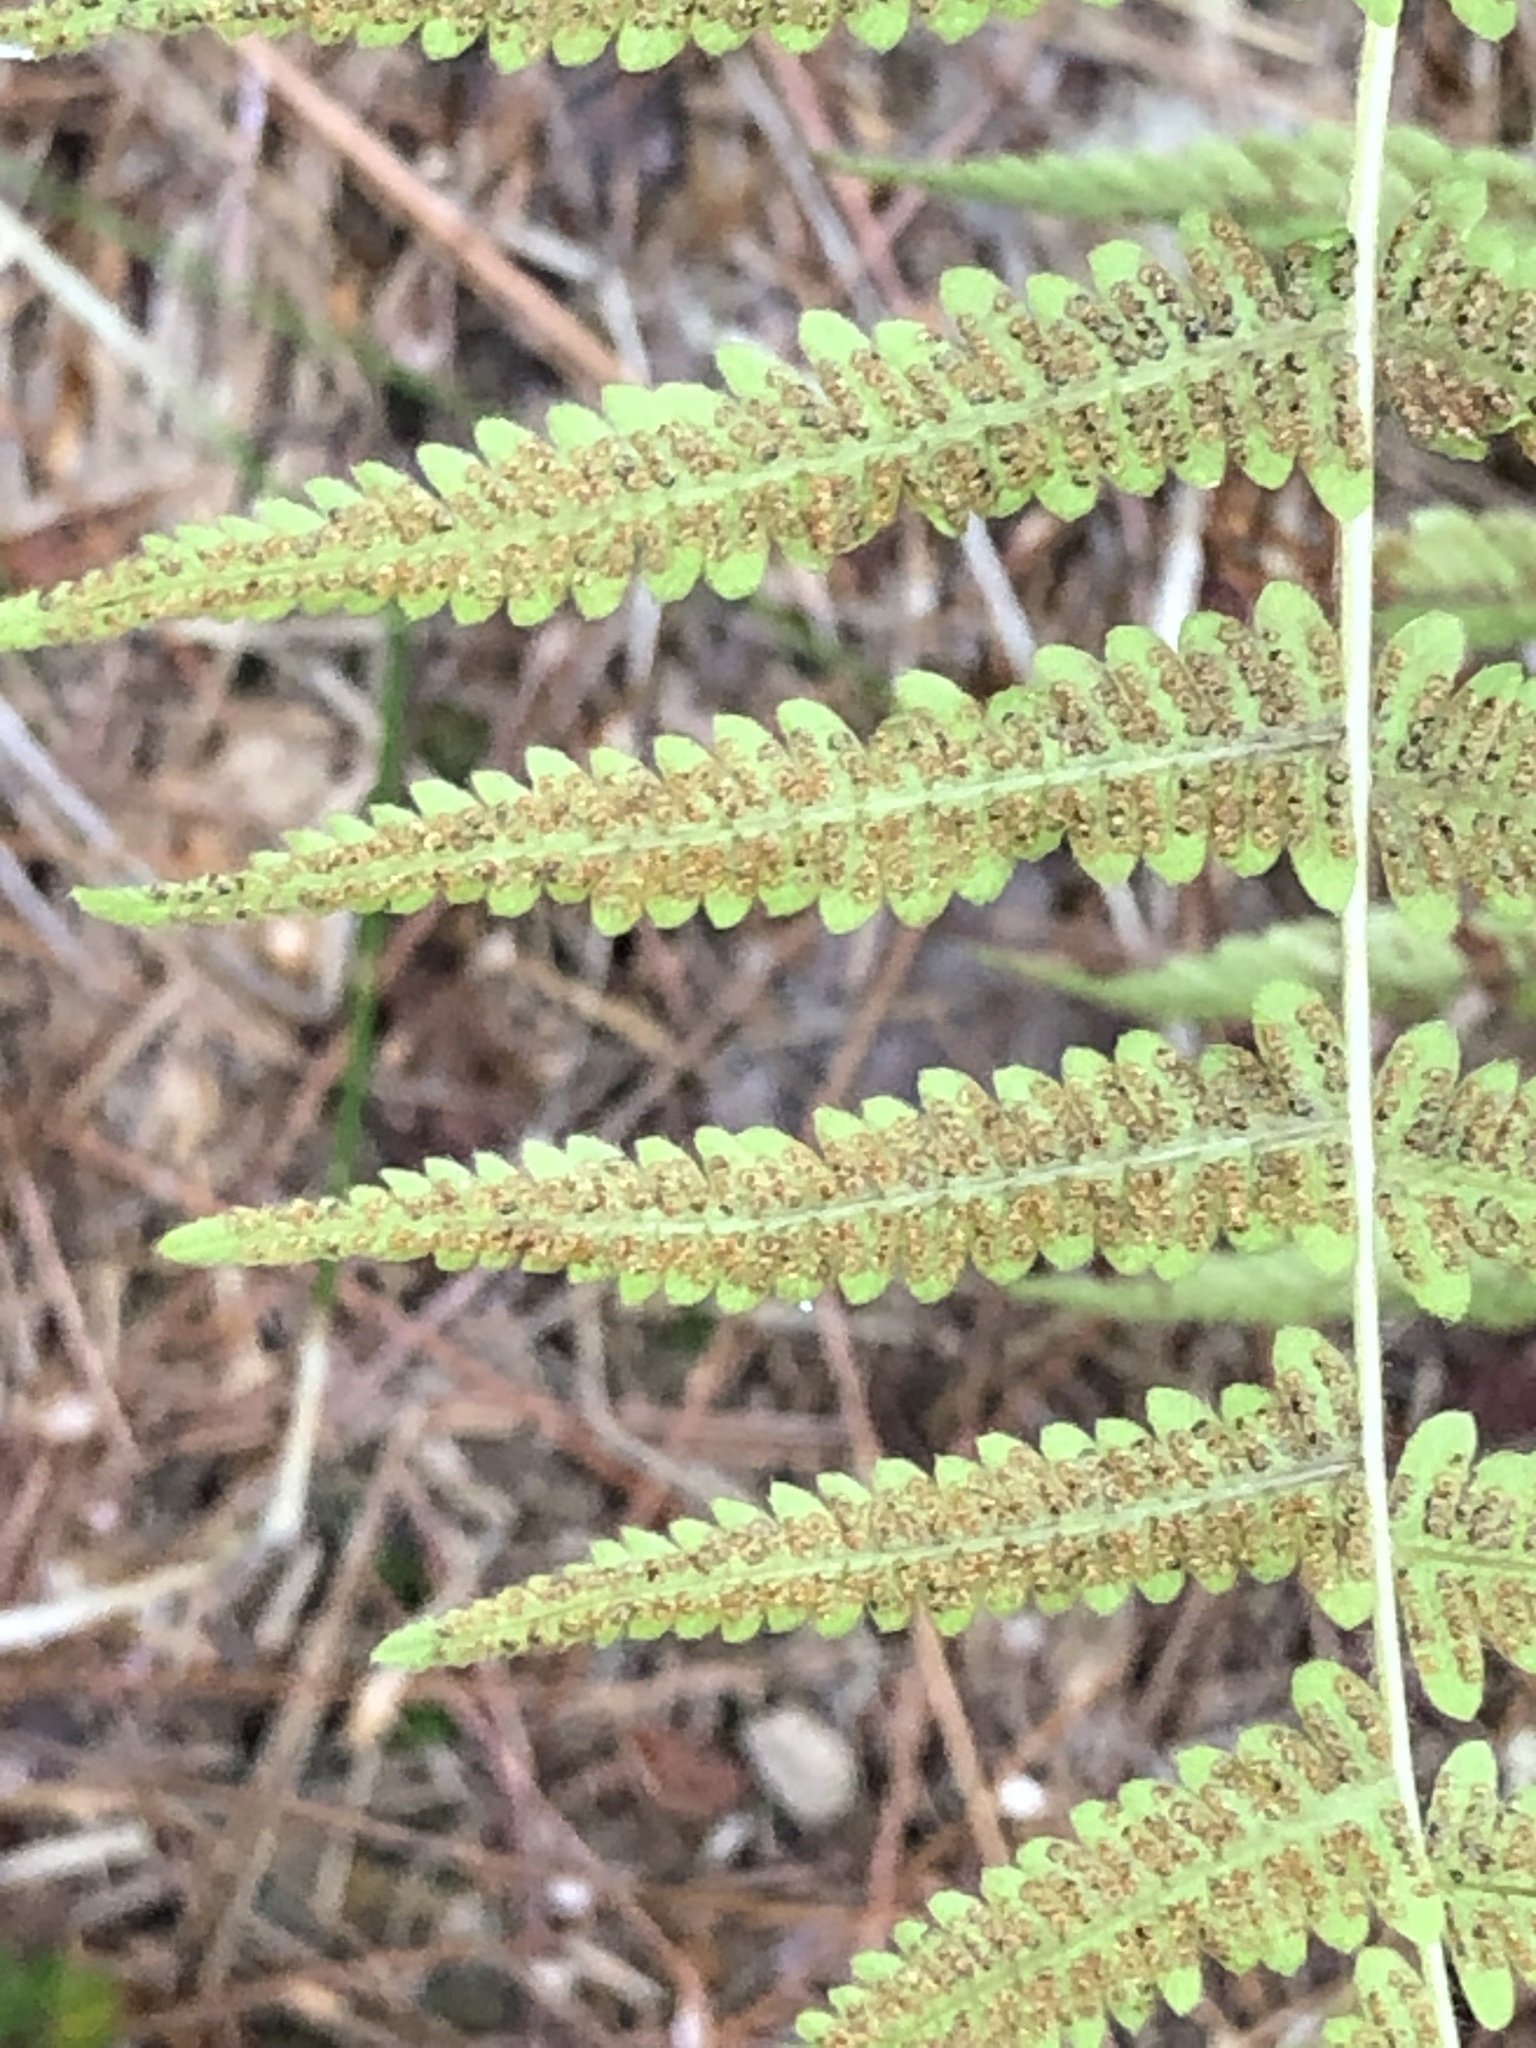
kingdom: Plantae
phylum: Tracheophyta
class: Polypodiopsida
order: Polypodiales
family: Thelypteridaceae
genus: Amauropelta
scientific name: Amauropelta noveboracensis
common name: New york fern
